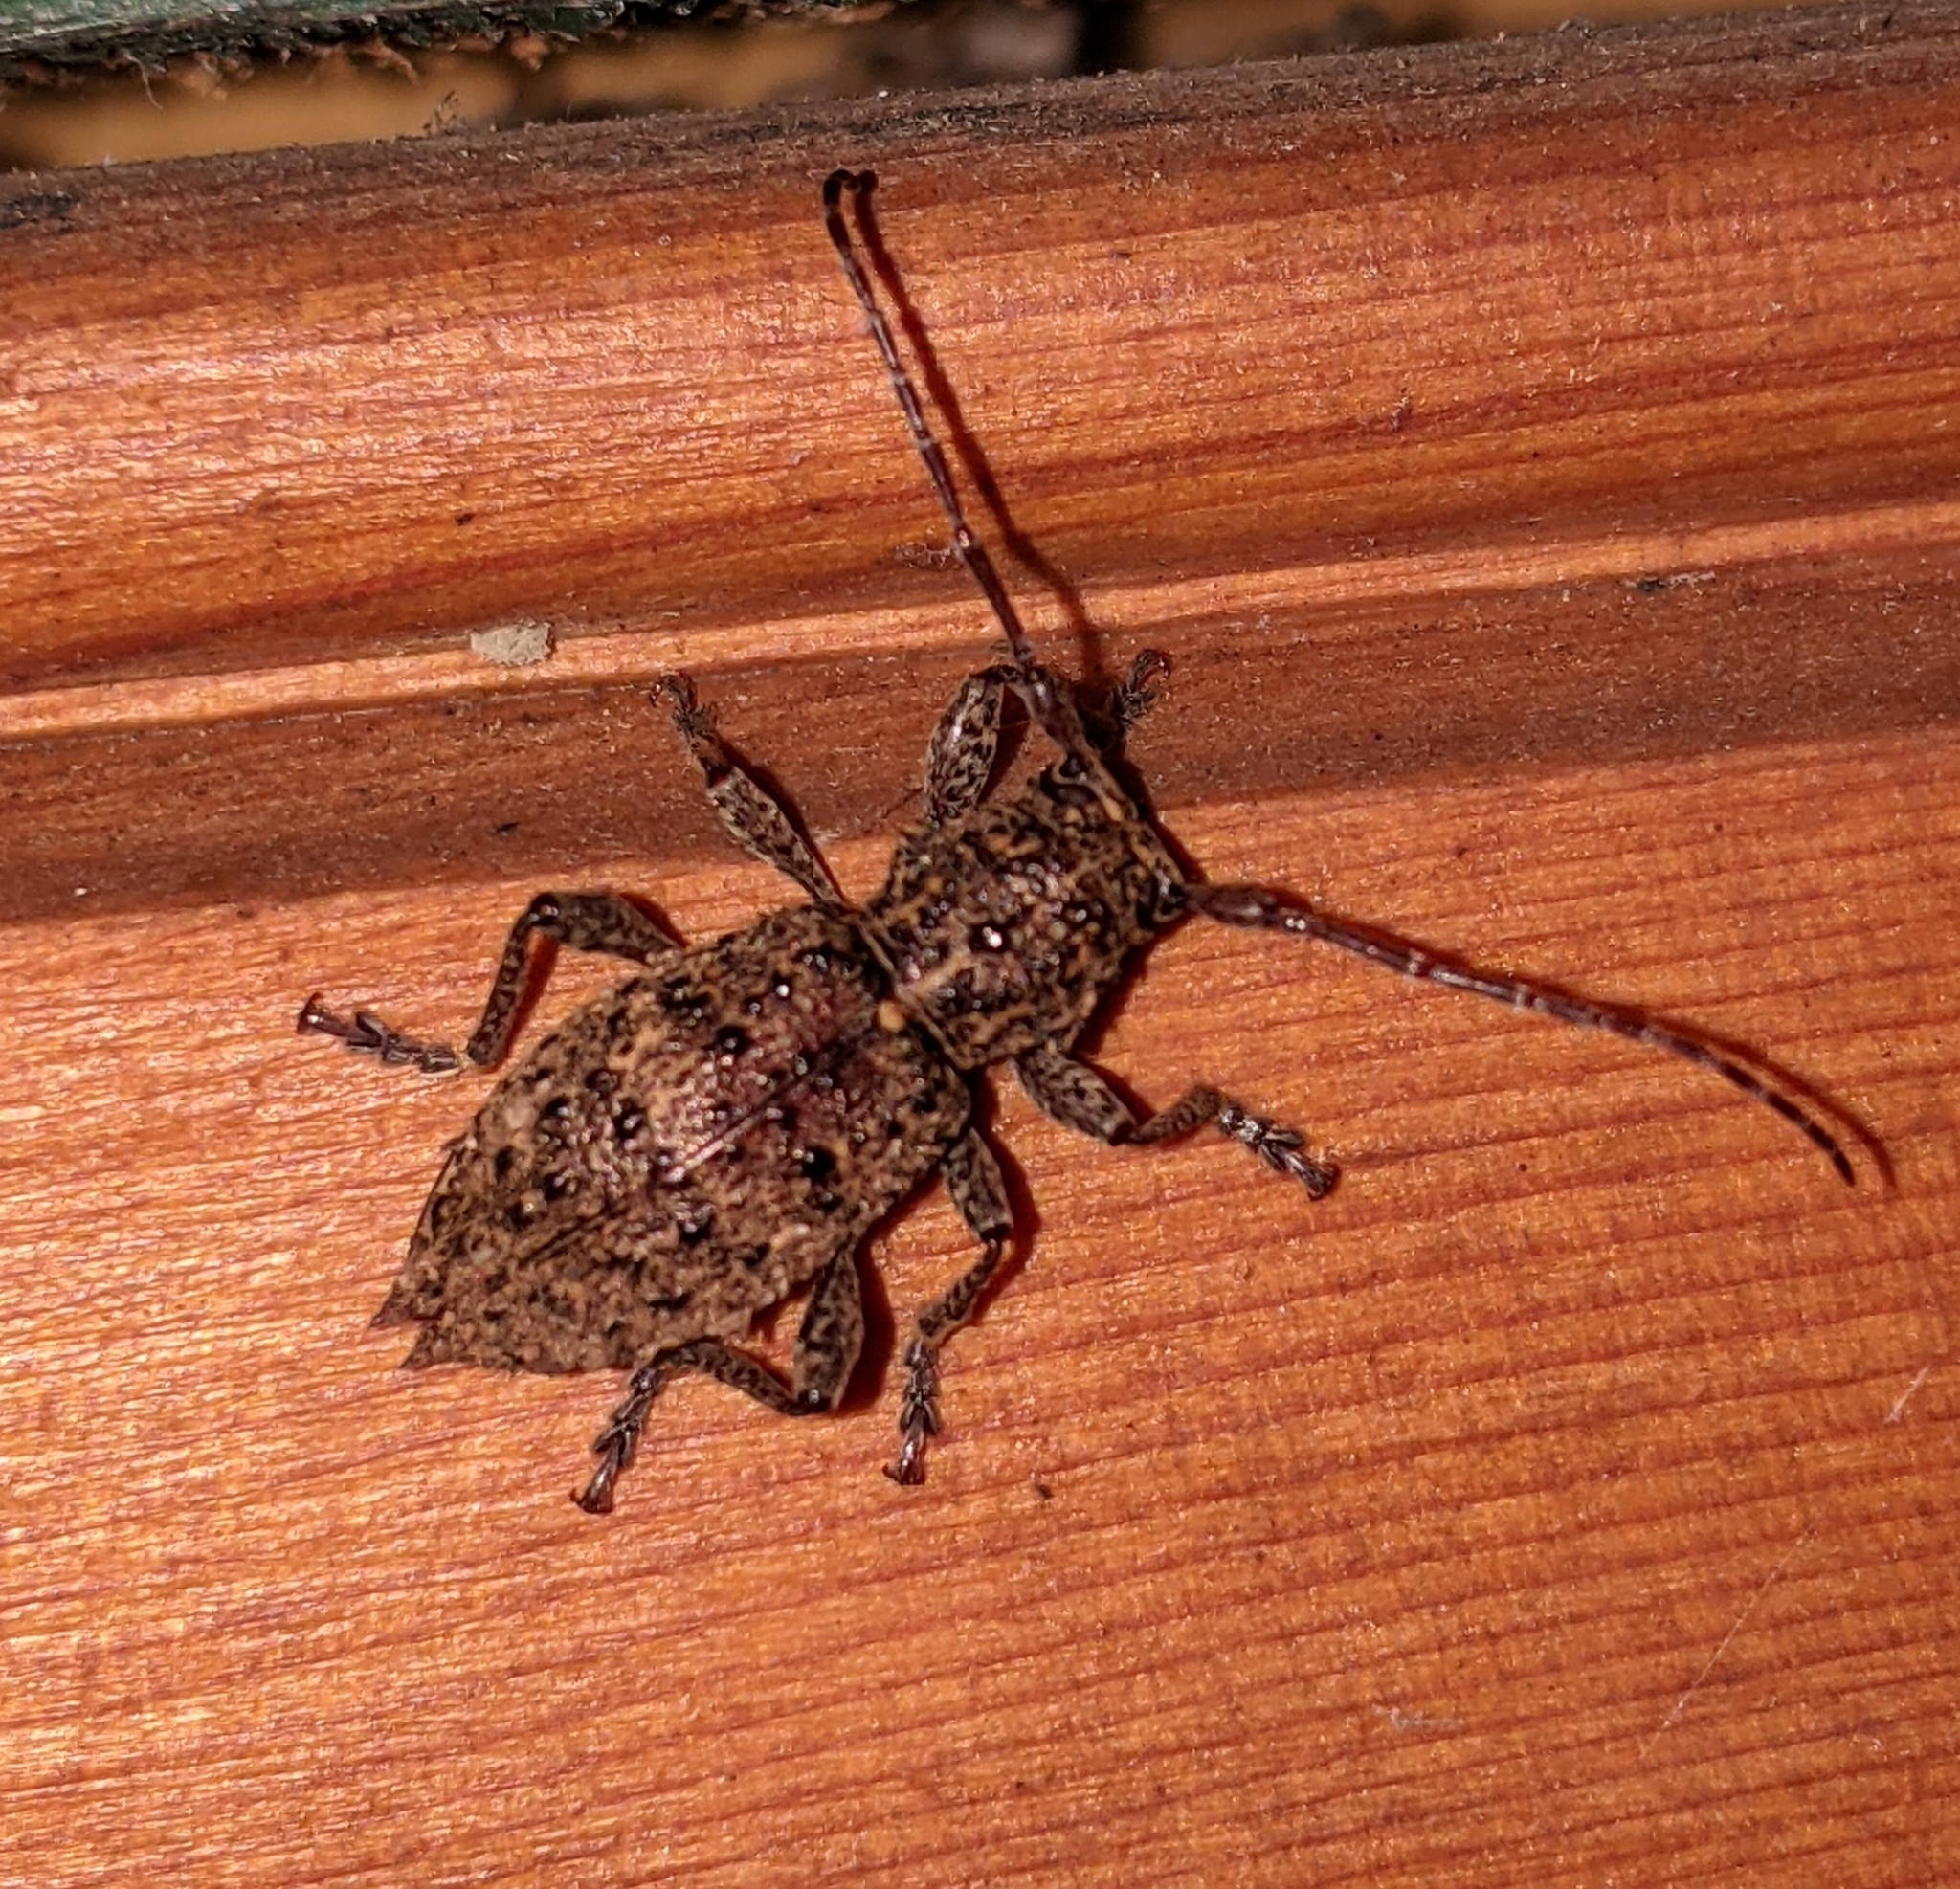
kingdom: Animalia
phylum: Arthropoda
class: Insecta
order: Coleoptera
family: Cerambycidae
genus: Plectrura
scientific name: Plectrura spinicauda
